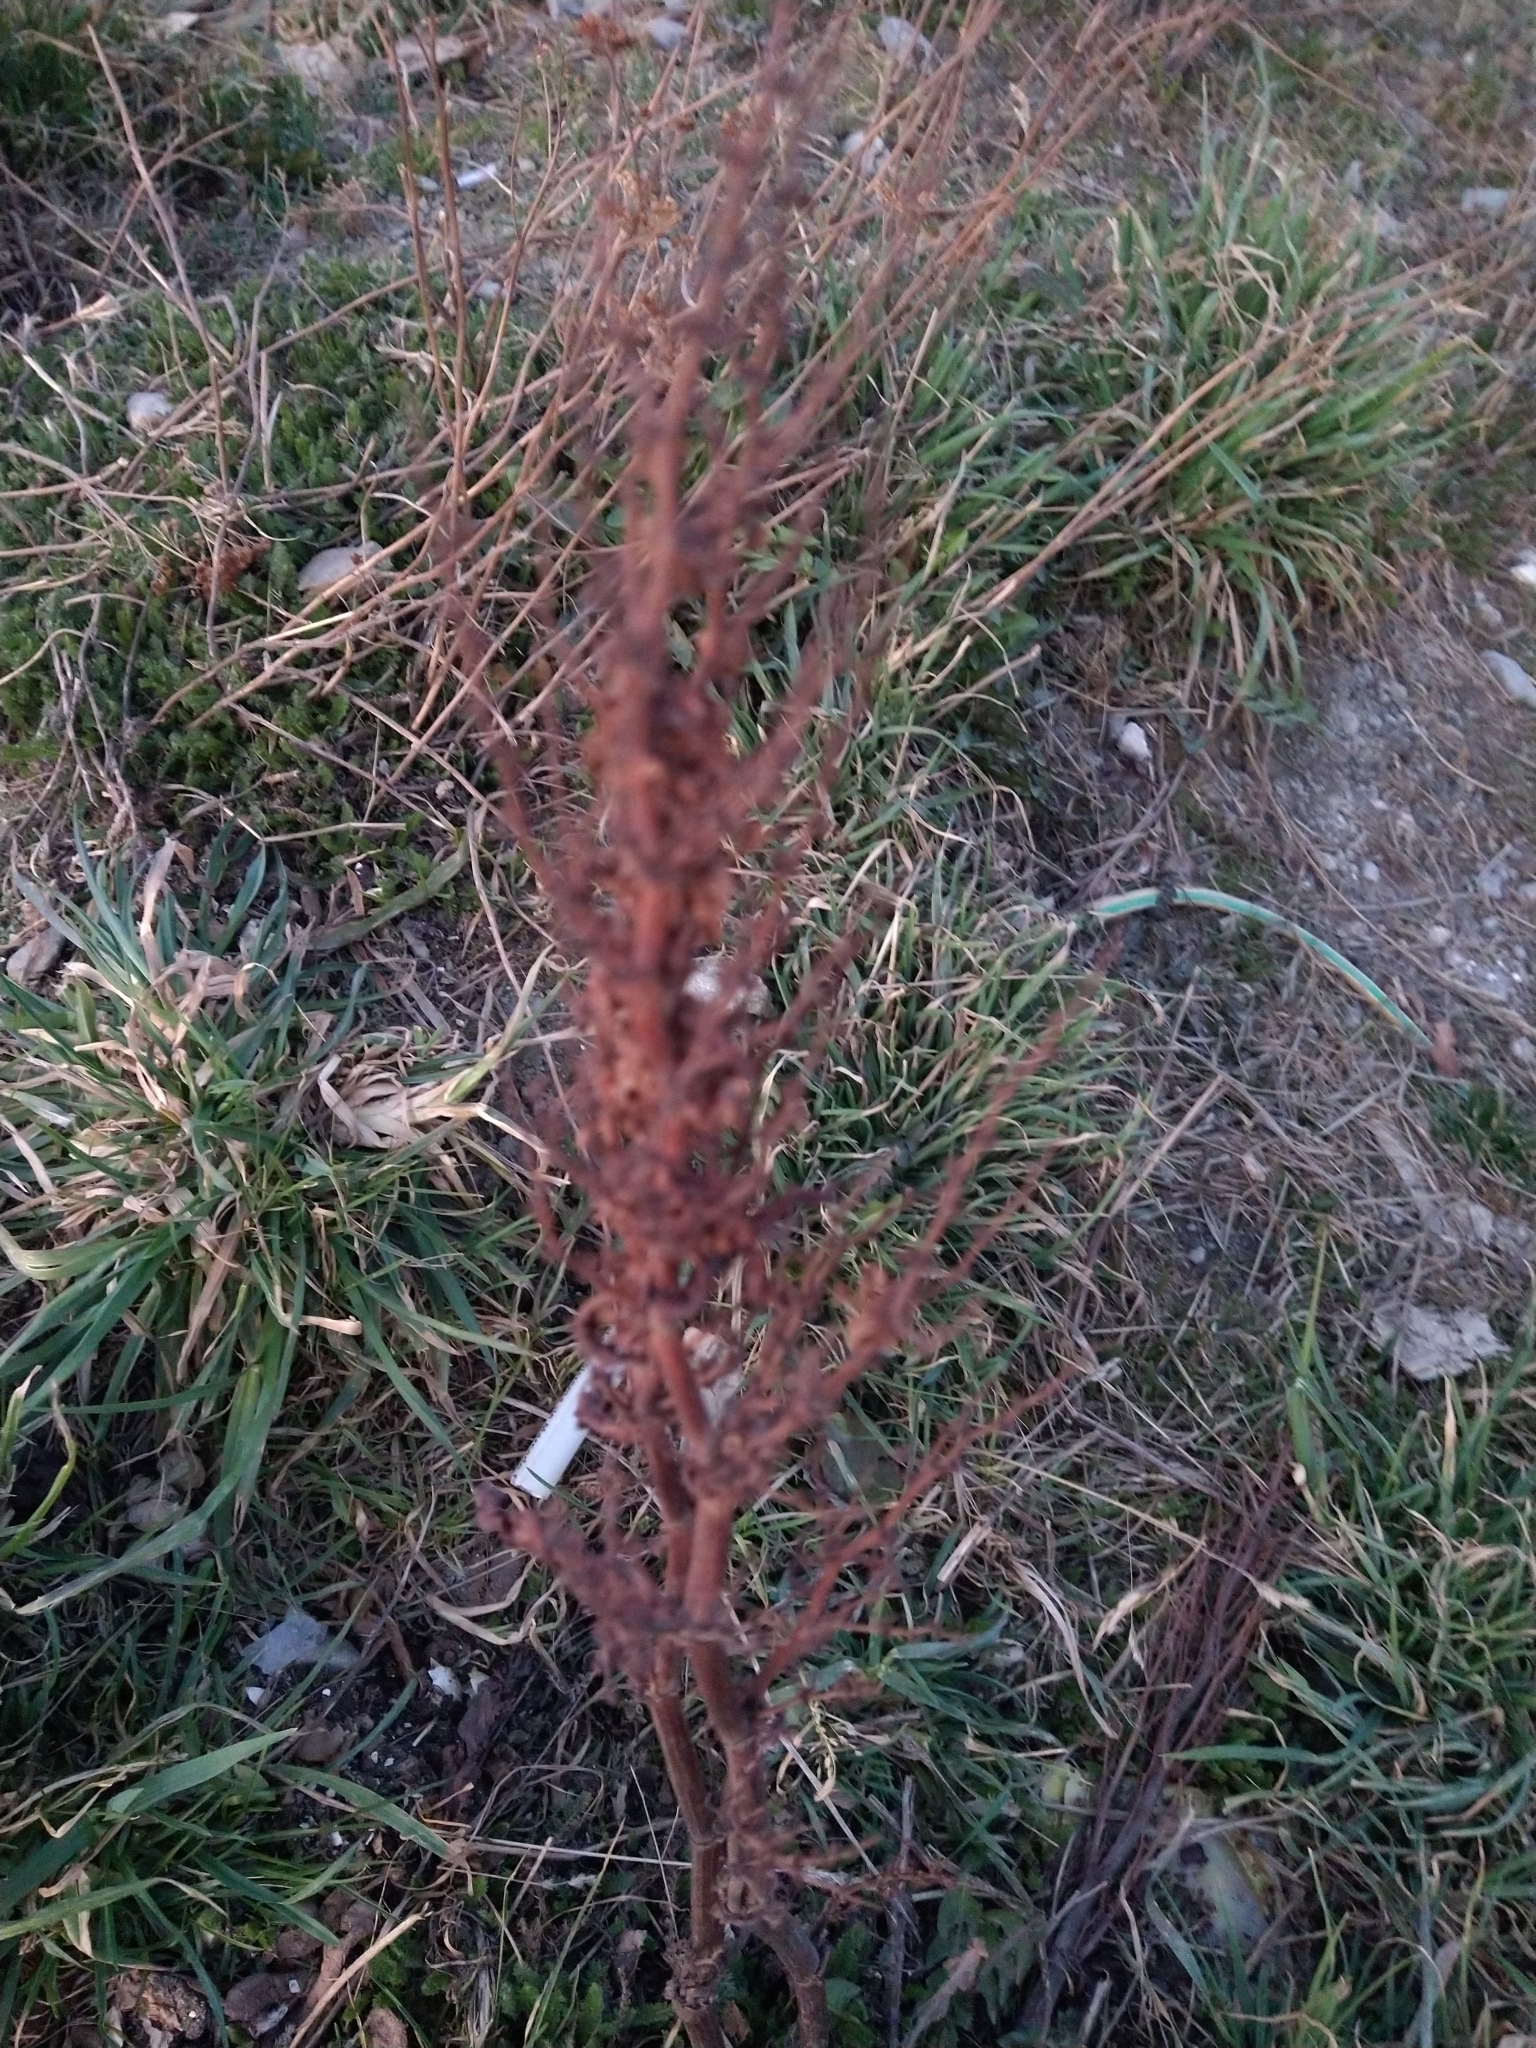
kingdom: Plantae
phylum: Tracheophyta
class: Magnoliopsida
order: Caryophyllales
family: Polygonaceae
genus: Rumex
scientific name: Rumex crispus
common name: Curled dock
